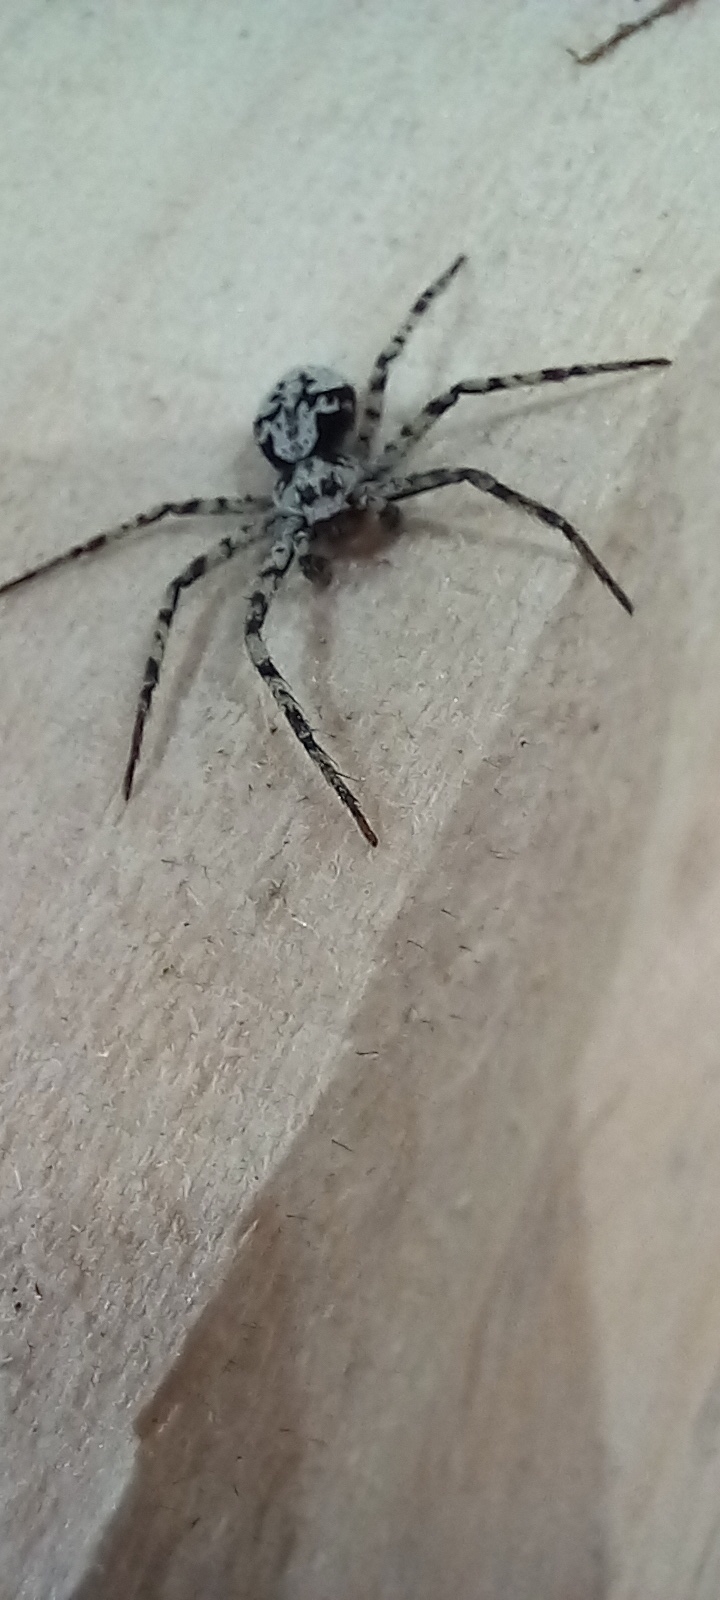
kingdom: Animalia
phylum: Arthropoda
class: Arachnida
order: Araneae
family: Philodromidae
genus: Philodromus
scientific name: Philodromus margaritatus
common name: Lichen running-spider
